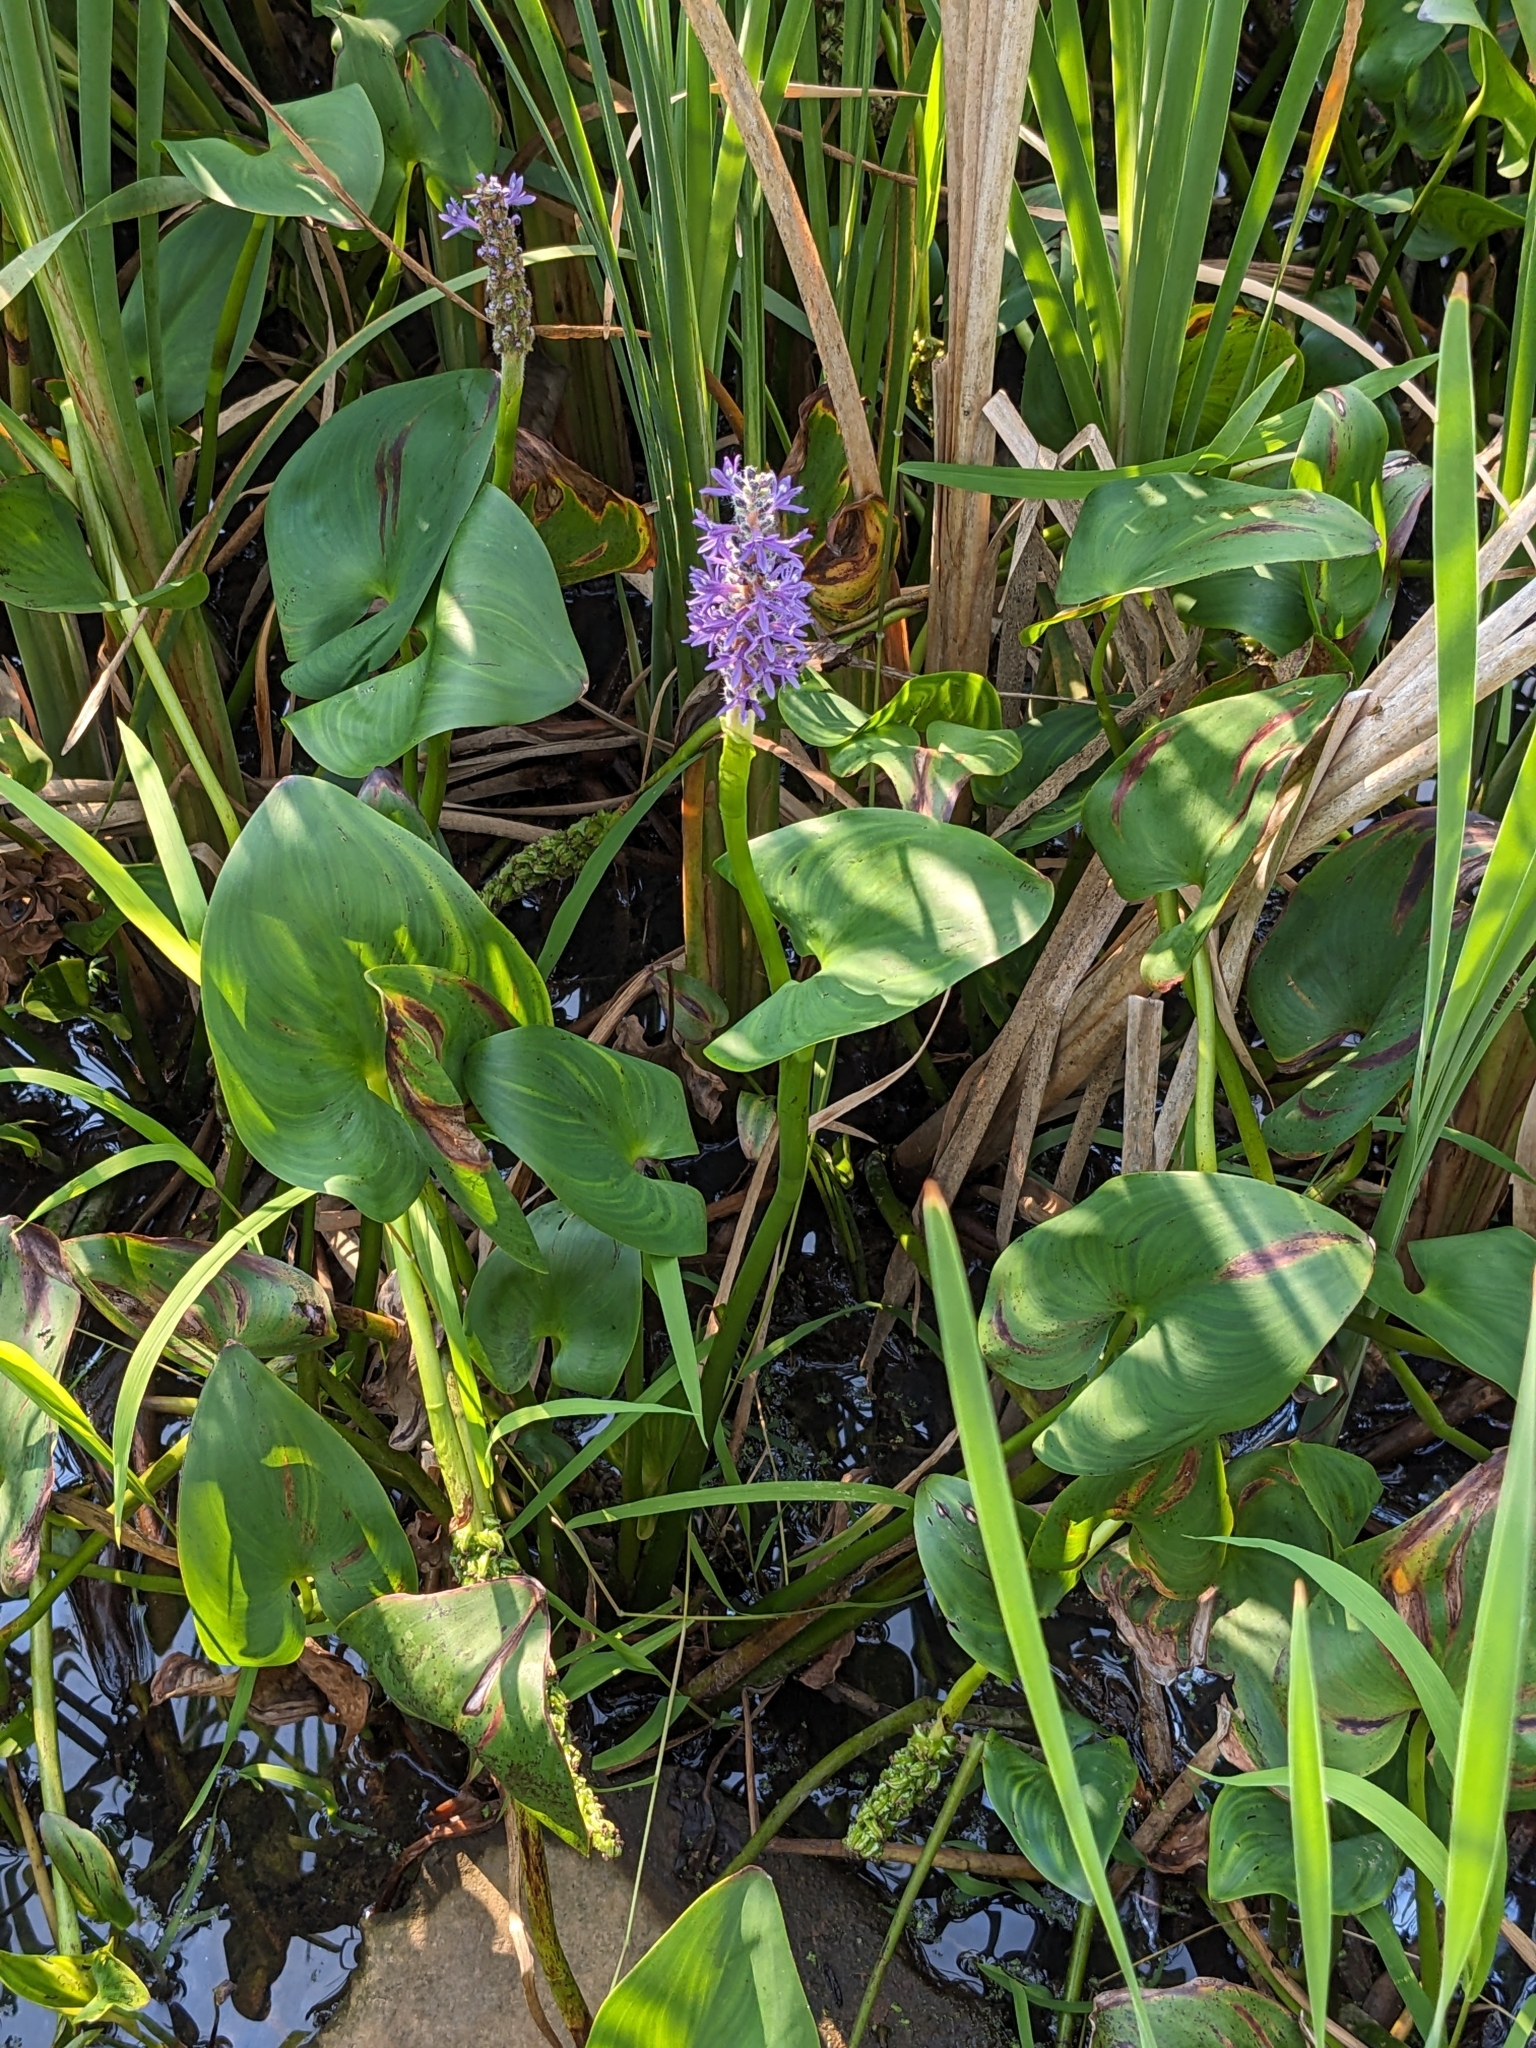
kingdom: Plantae
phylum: Tracheophyta
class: Liliopsida
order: Commelinales
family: Pontederiaceae
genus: Pontederia
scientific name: Pontederia cordata
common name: Pickerelweed
